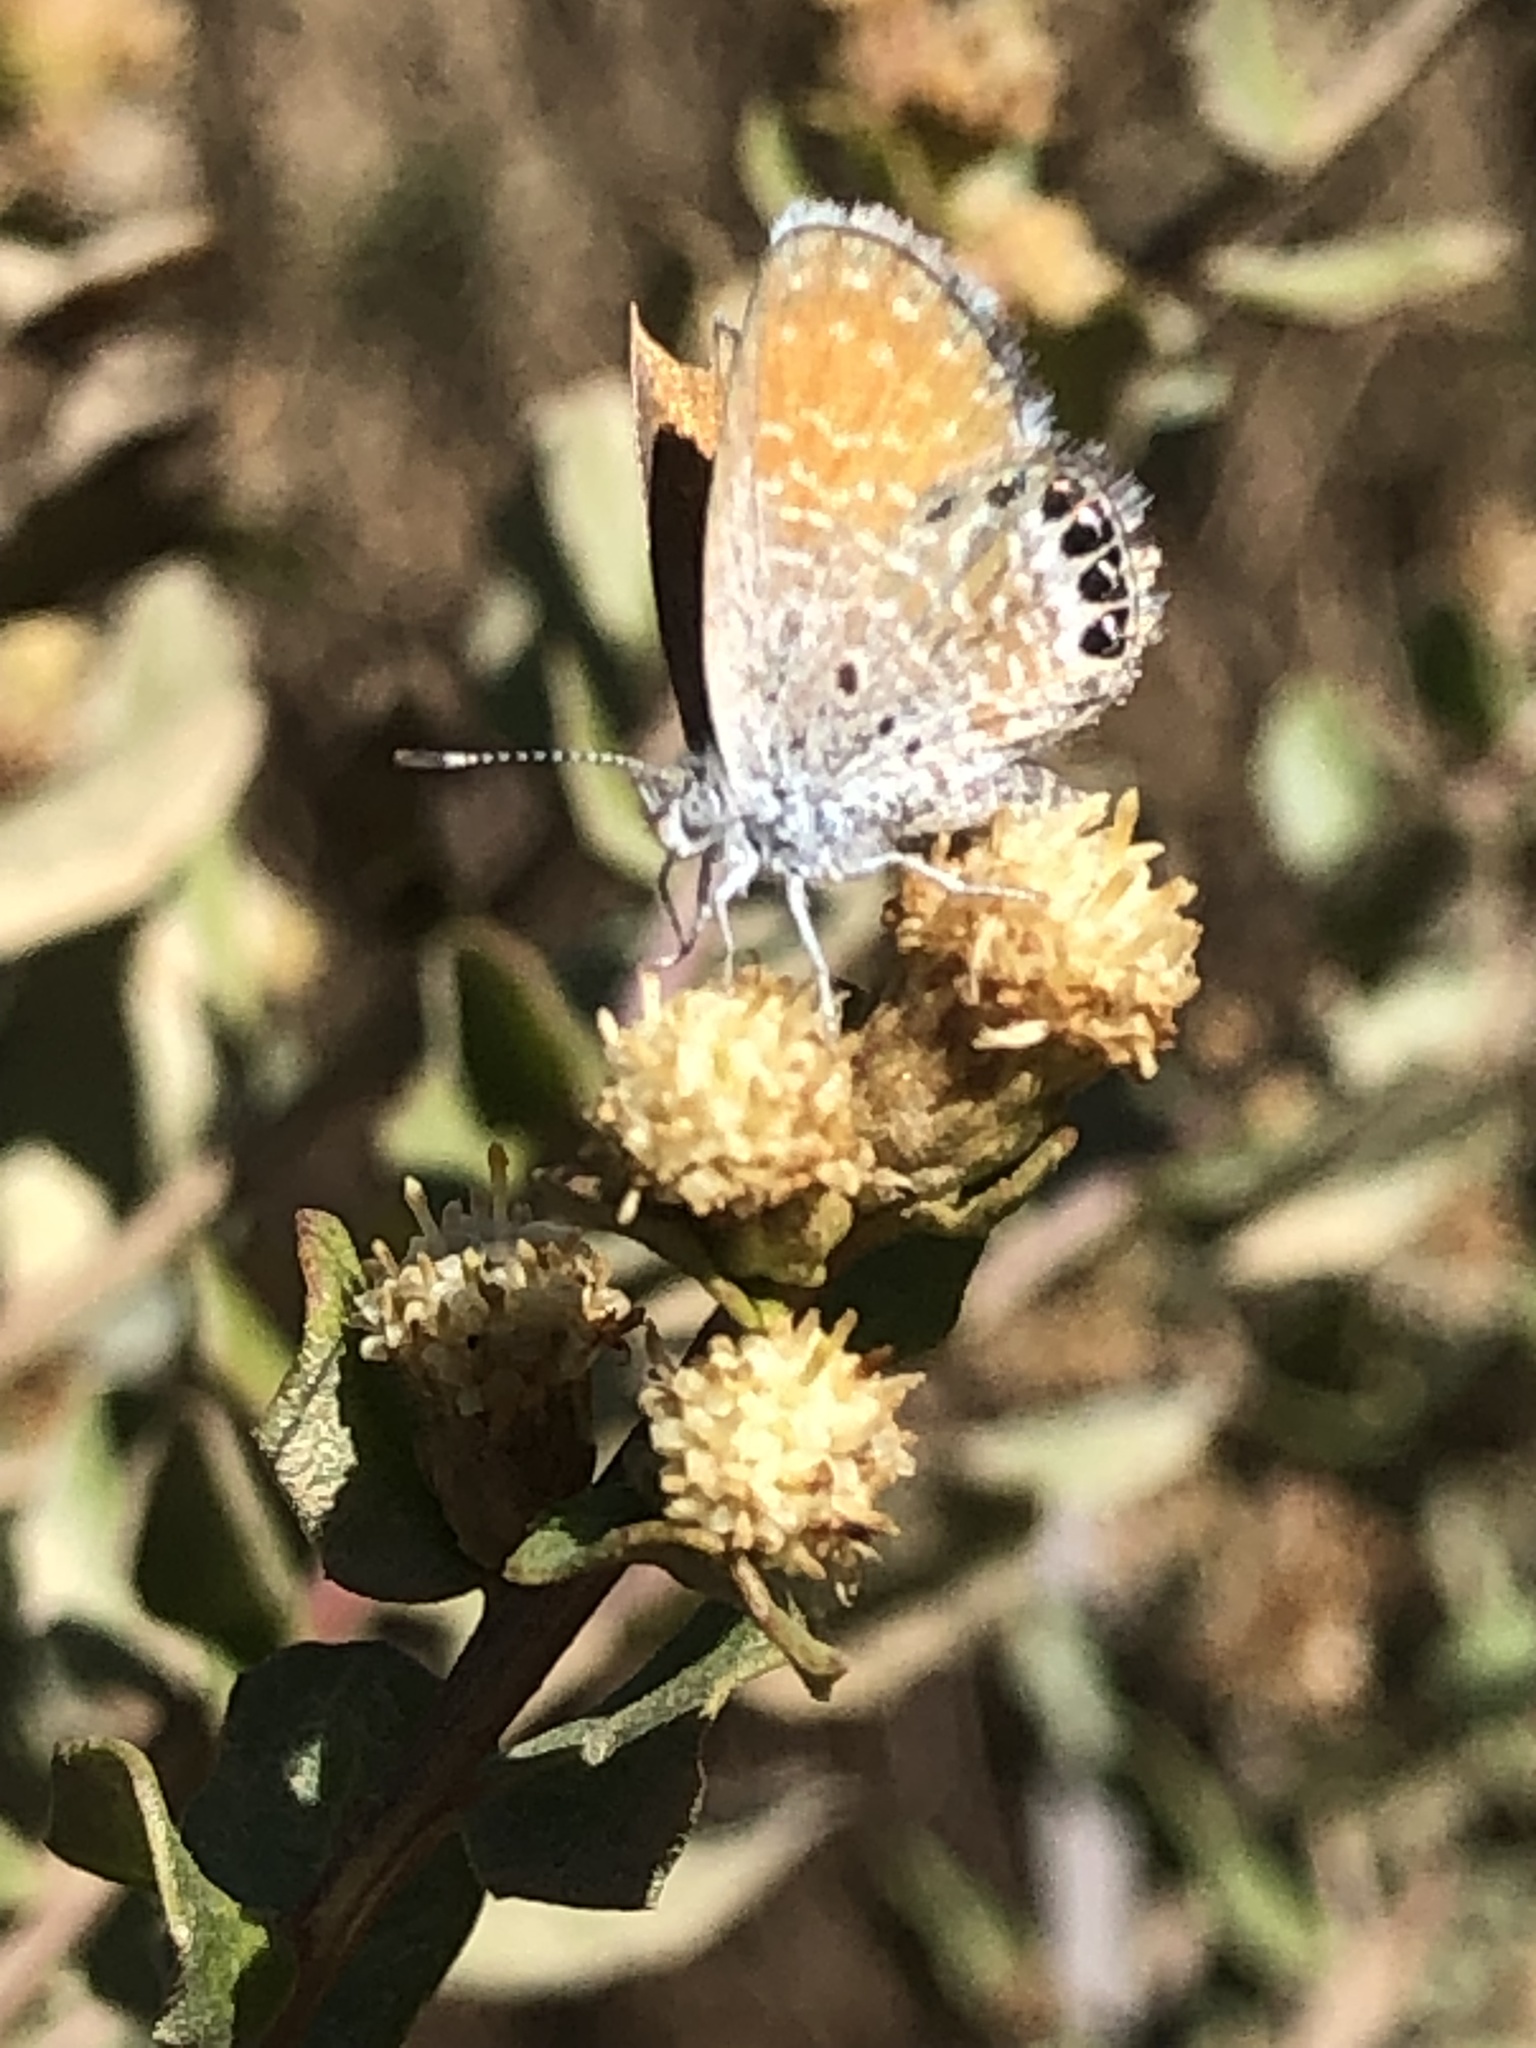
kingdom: Animalia
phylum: Arthropoda
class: Insecta
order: Lepidoptera
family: Lycaenidae
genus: Brephidium
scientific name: Brephidium exilis
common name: Pygmy blue
